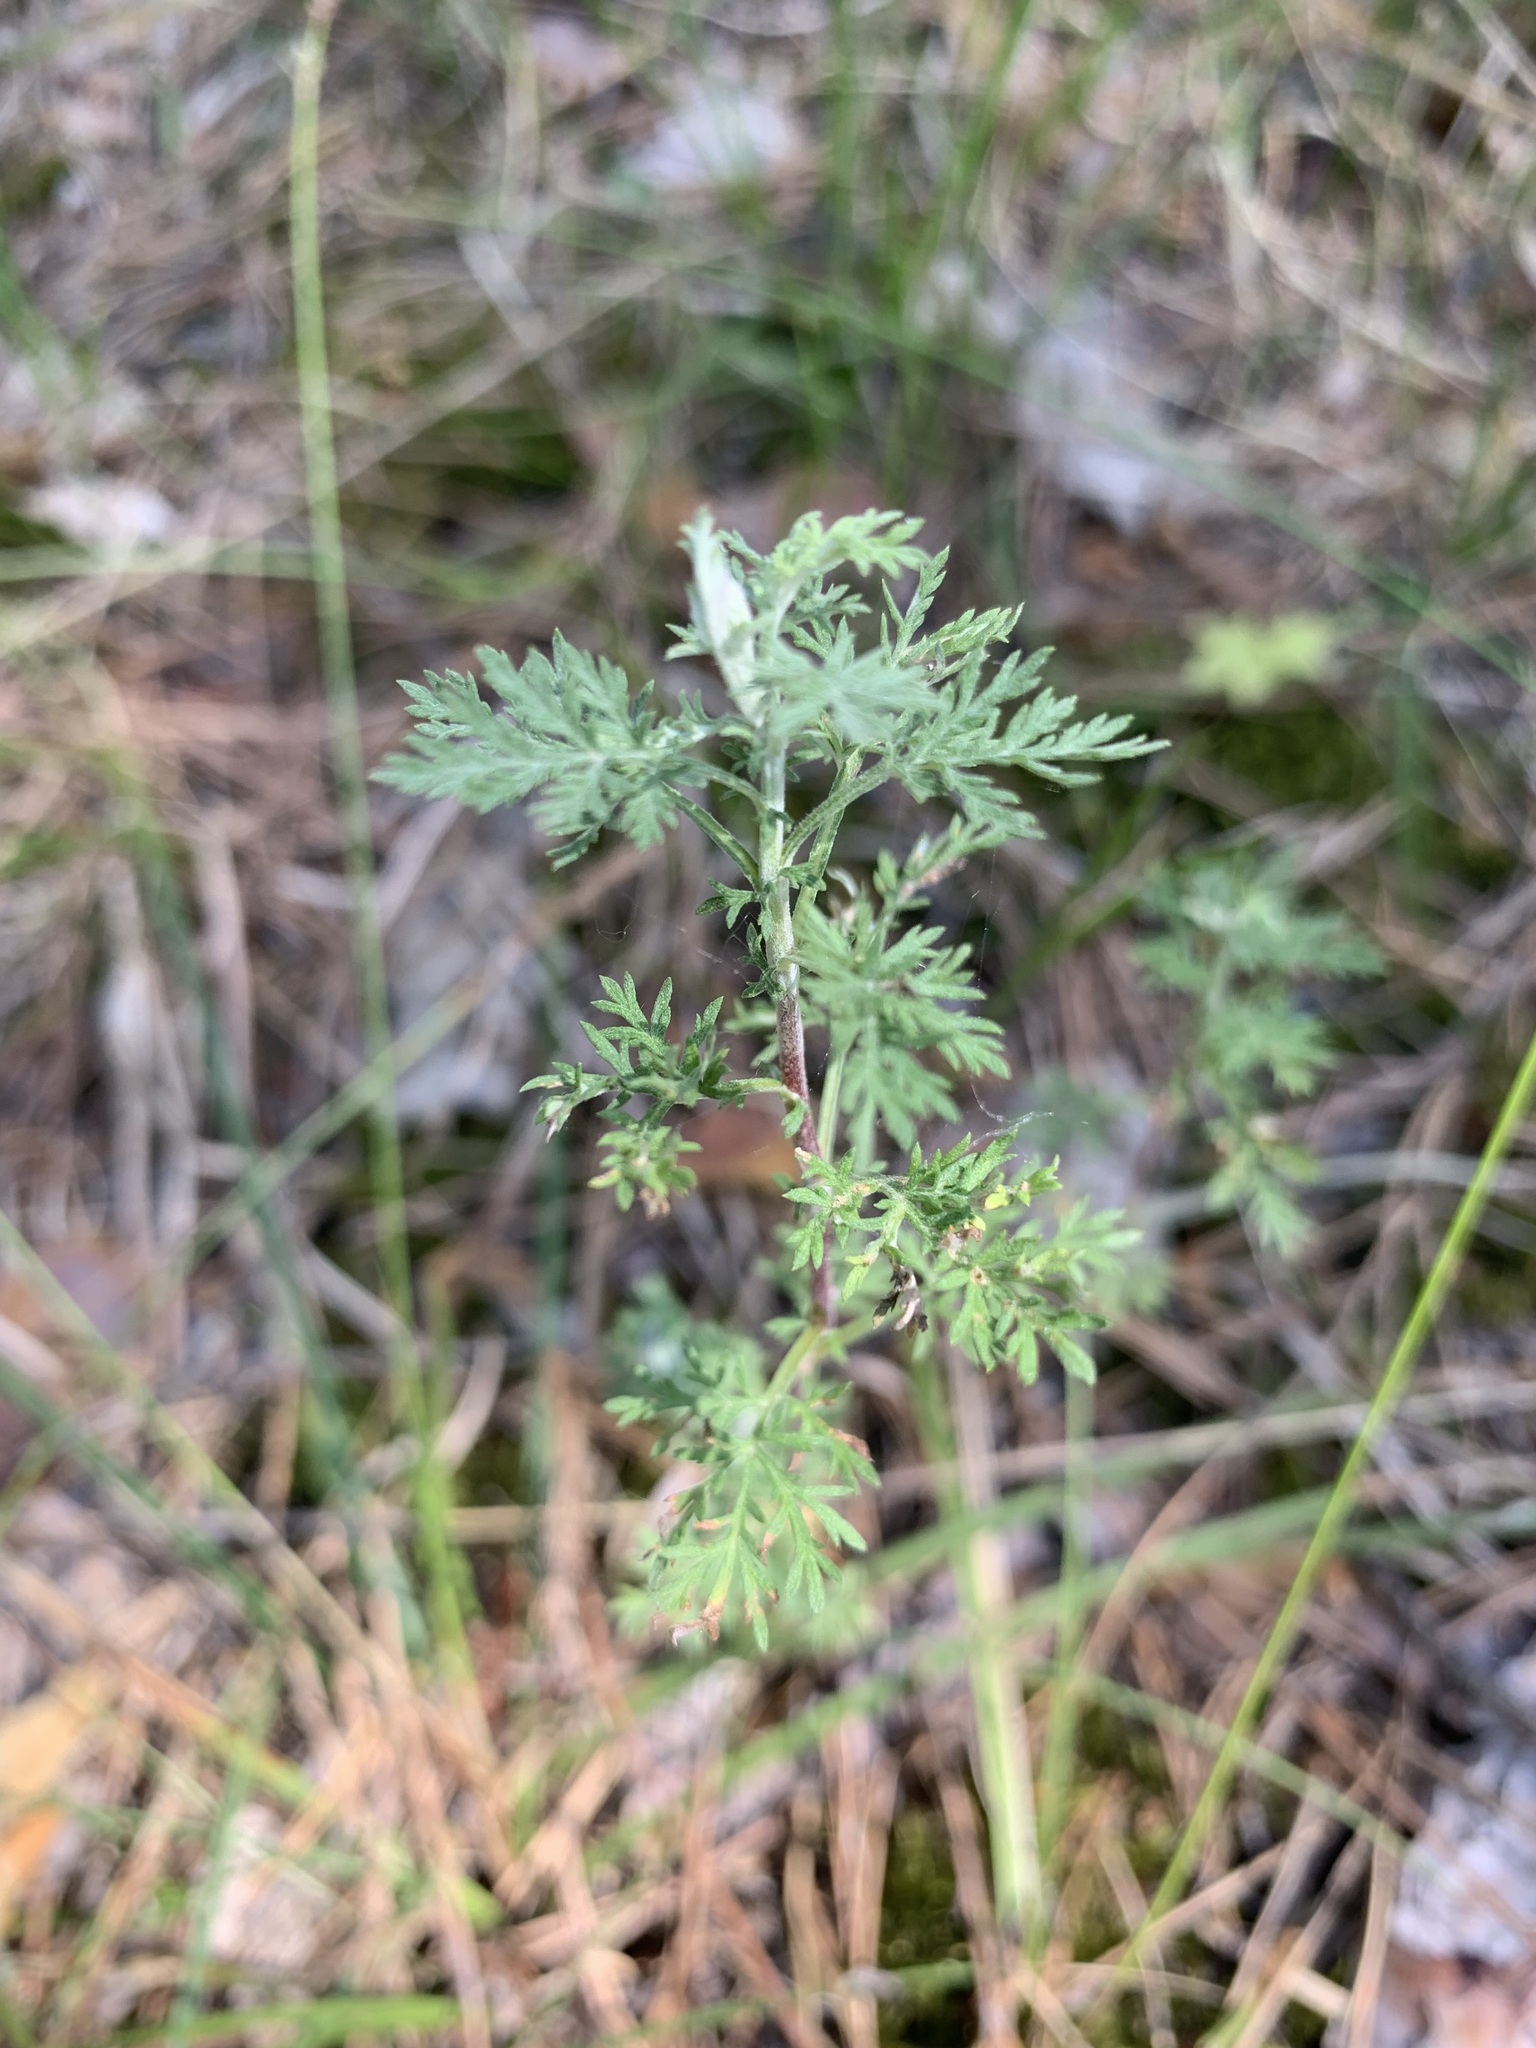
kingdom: Plantae
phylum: Tracheophyta
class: Magnoliopsida
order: Asterales
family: Asteraceae
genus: Artemisia
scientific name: Artemisia pontica
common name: Roman wormwood
